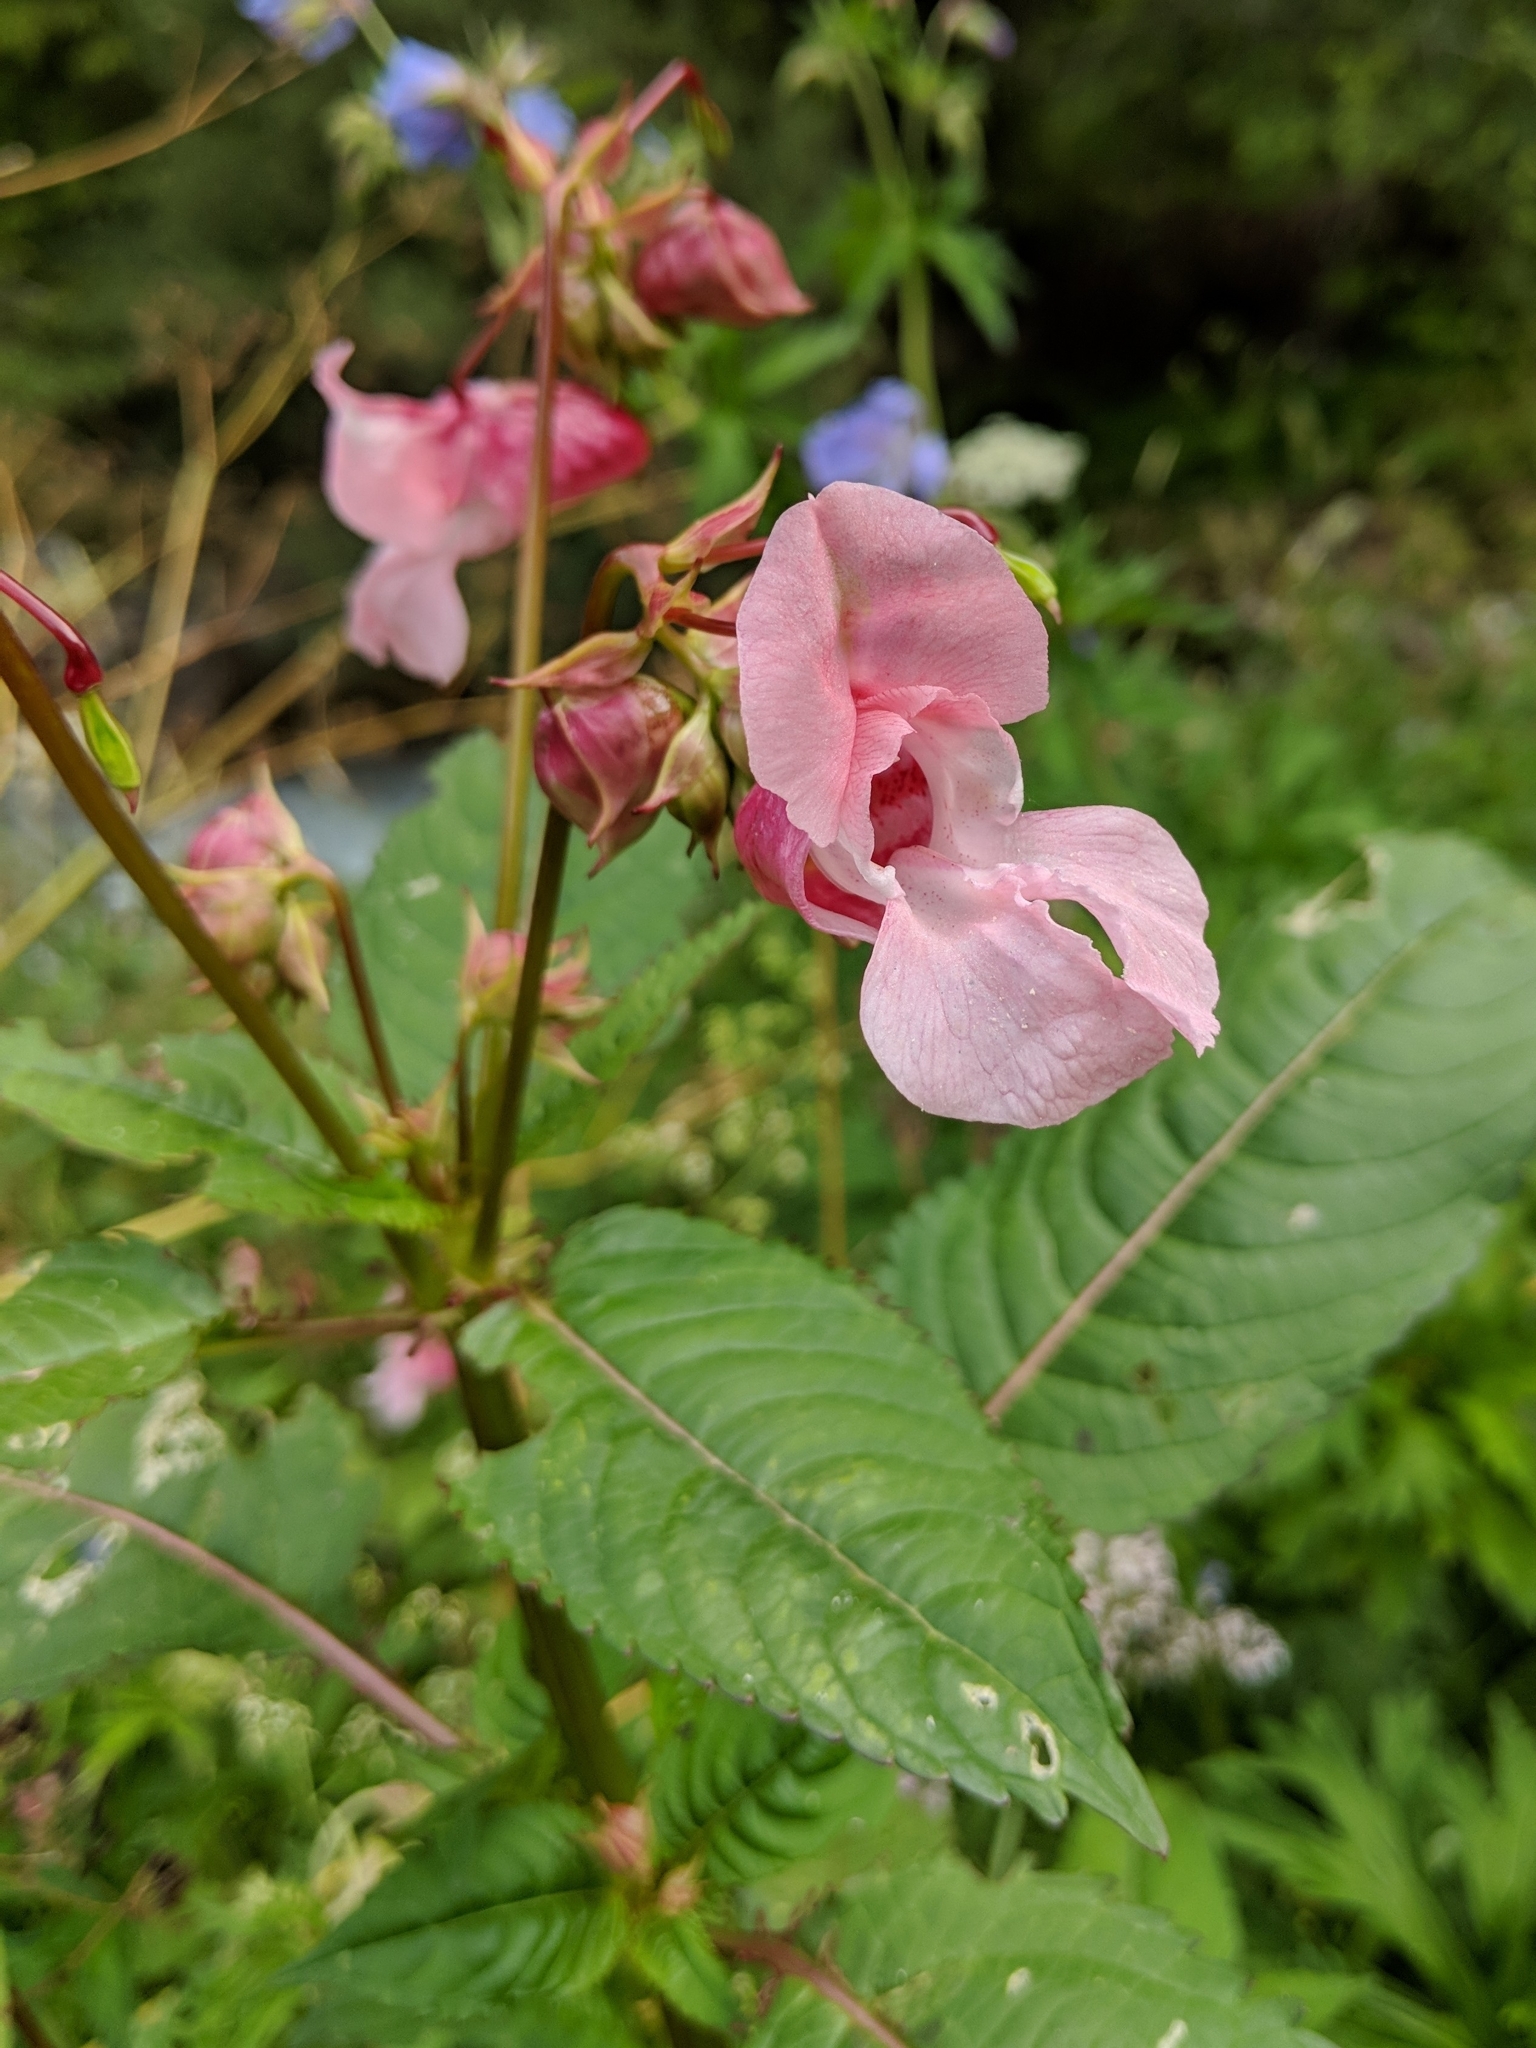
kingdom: Plantae
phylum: Tracheophyta
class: Magnoliopsida
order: Ericales
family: Balsaminaceae
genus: Impatiens
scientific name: Impatiens glandulifera
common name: Himalayan balsam
